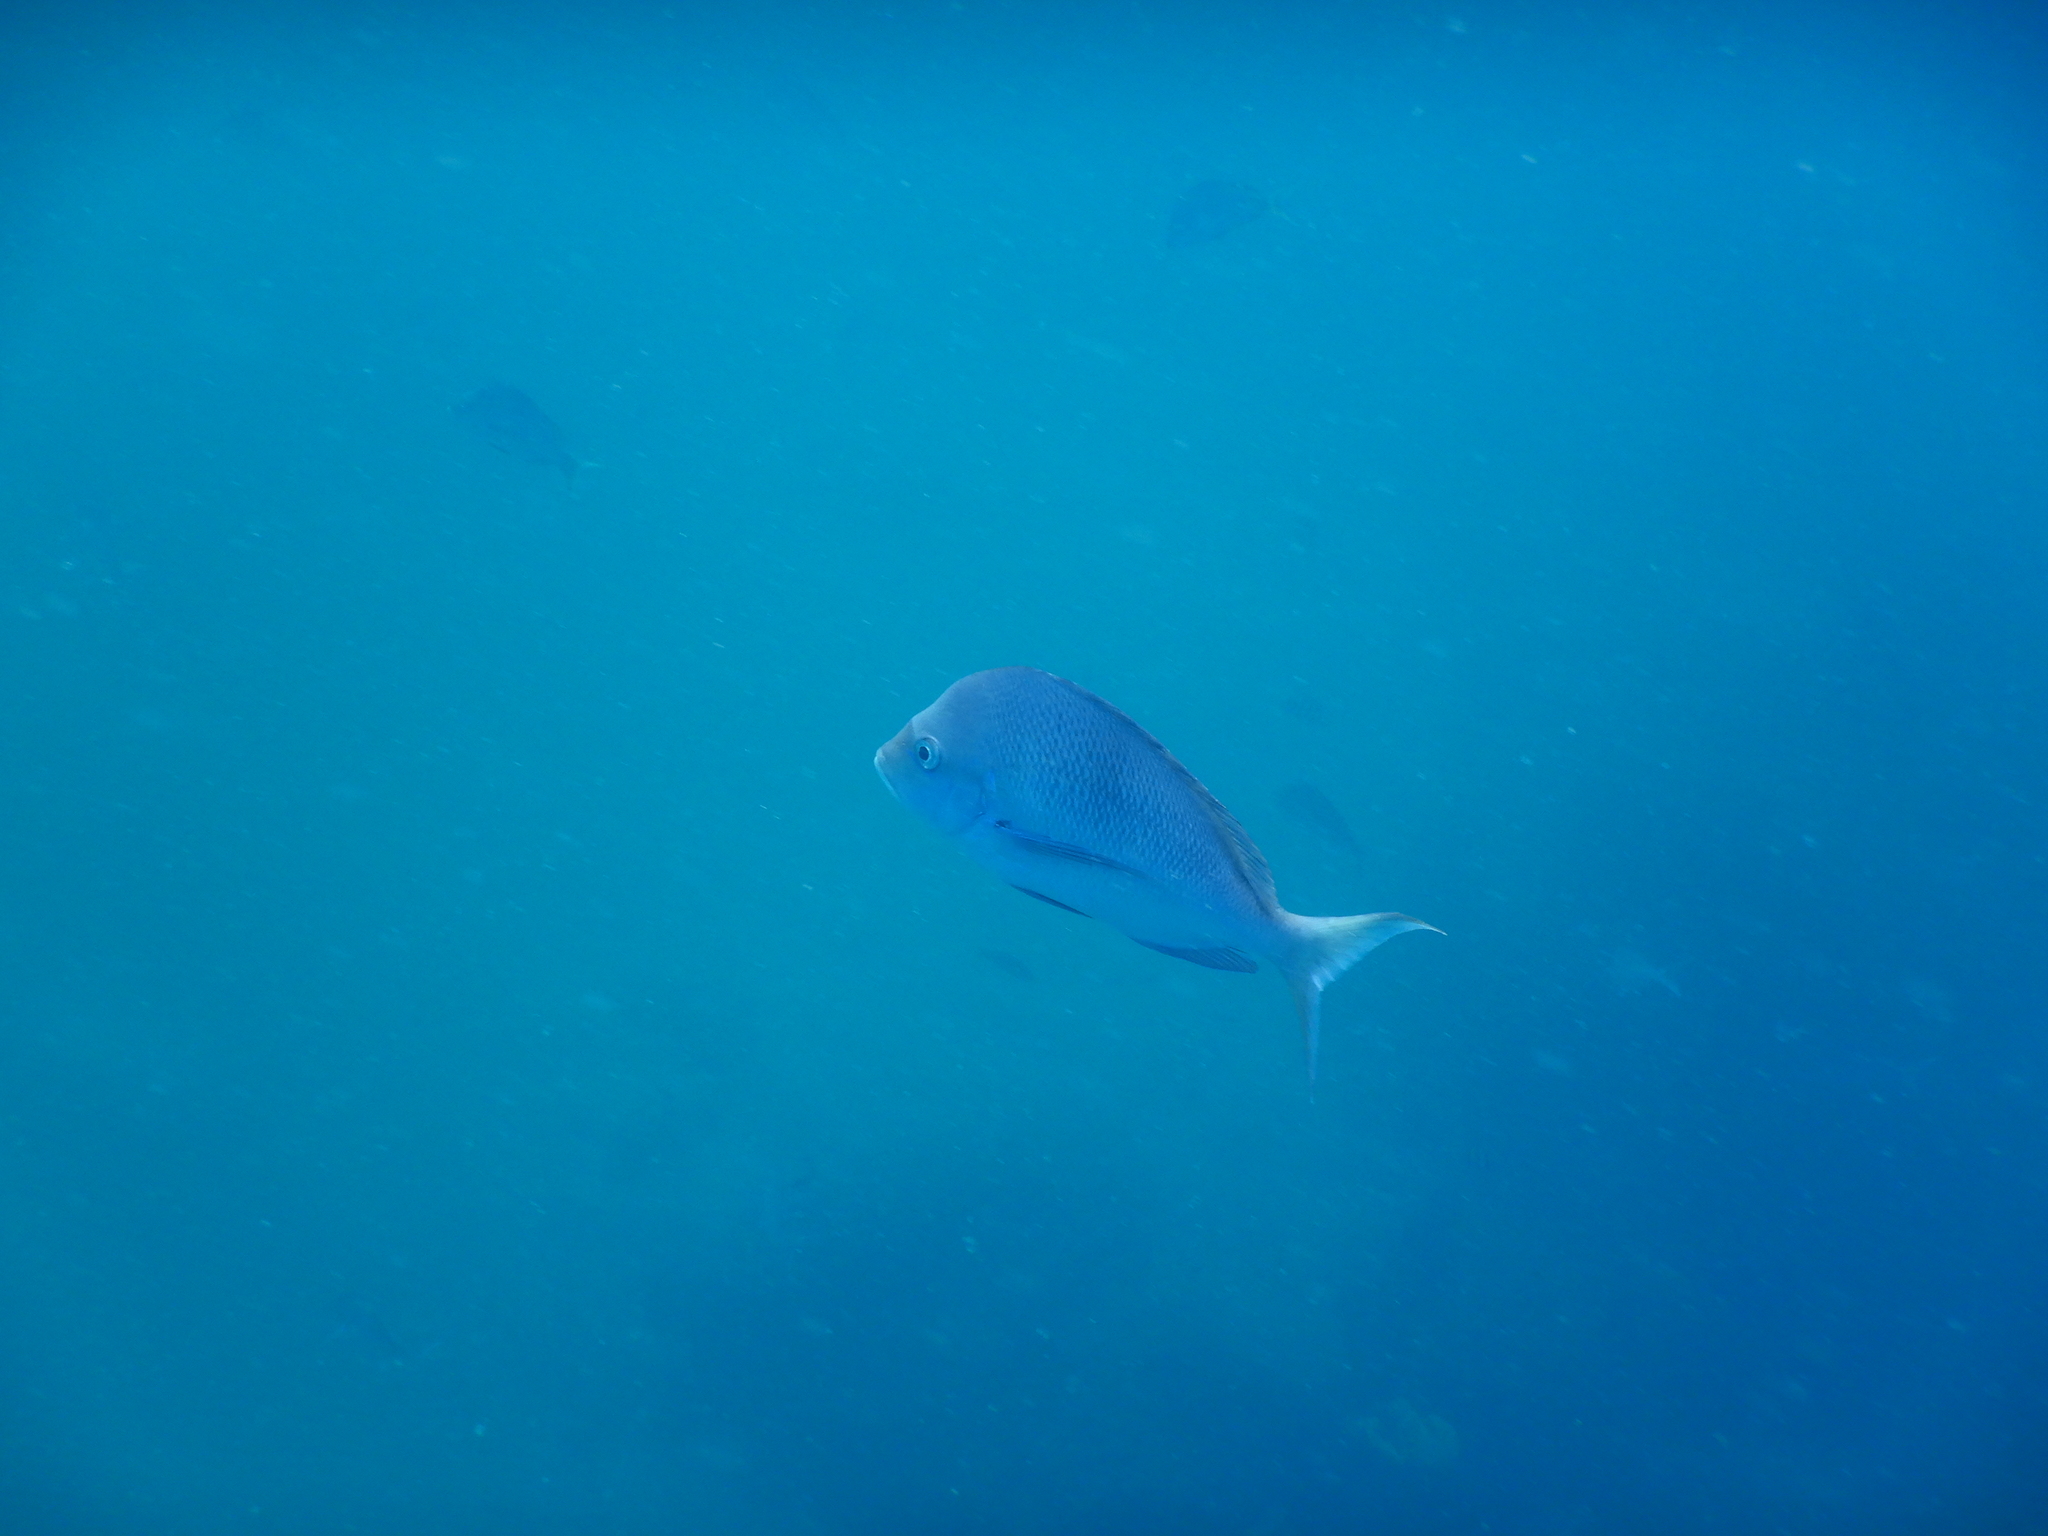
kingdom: Animalia
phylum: Chordata
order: Perciformes
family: Sparidae
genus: Chrysoblephus
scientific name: Chrysoblephus puniceus
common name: Slinger seabream
